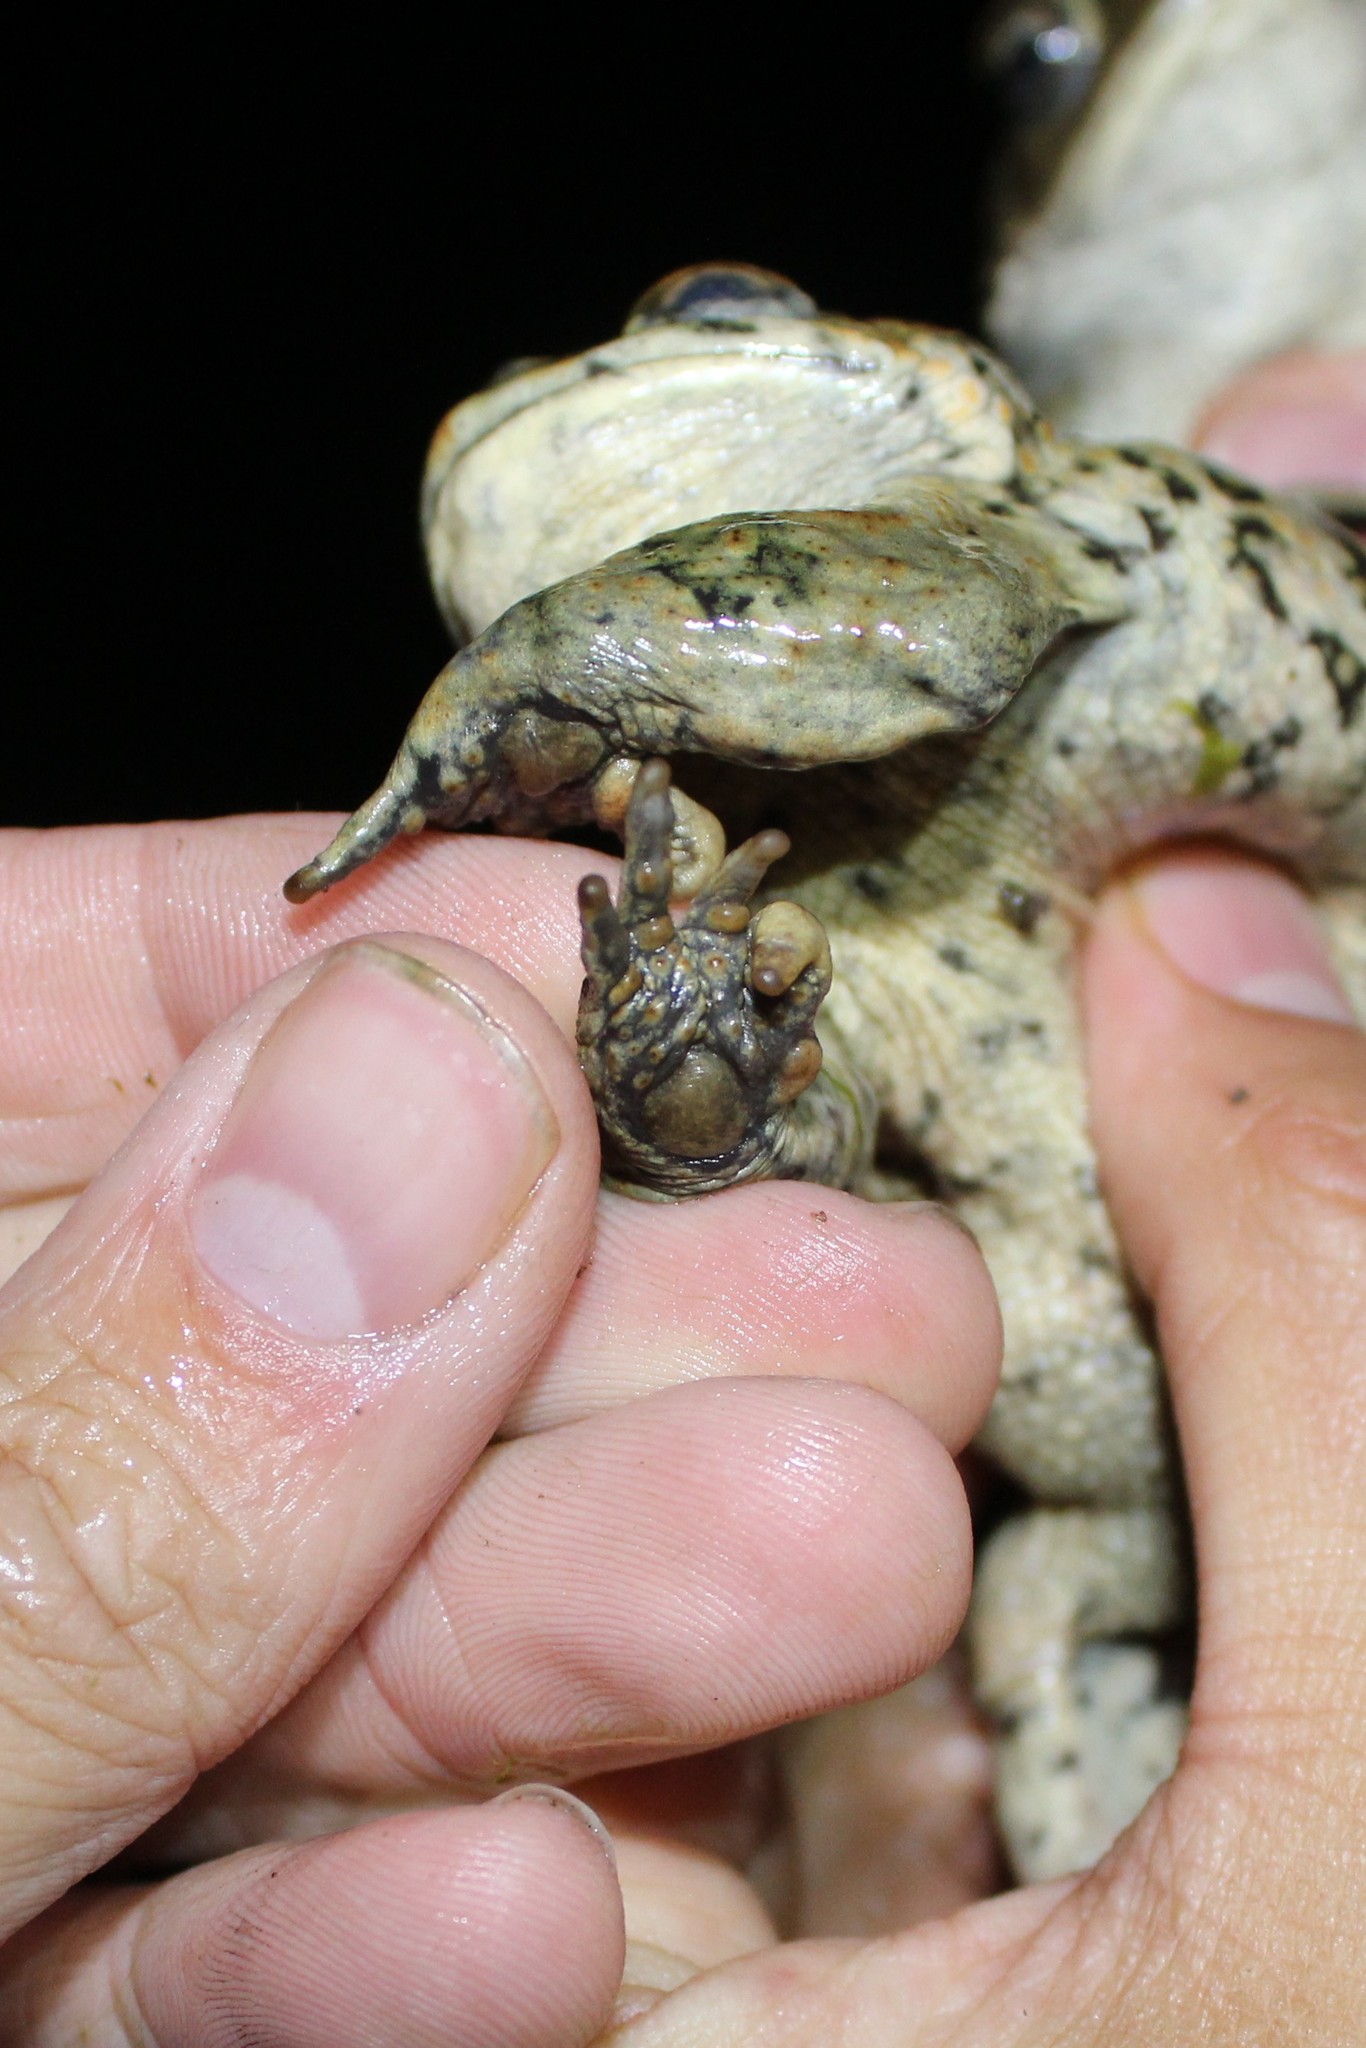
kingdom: Animalia
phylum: Chordata
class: Amphibia
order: Anura
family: Bufonidae
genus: Anaxyrus
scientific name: Anaxyrus boreas
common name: Western toad
